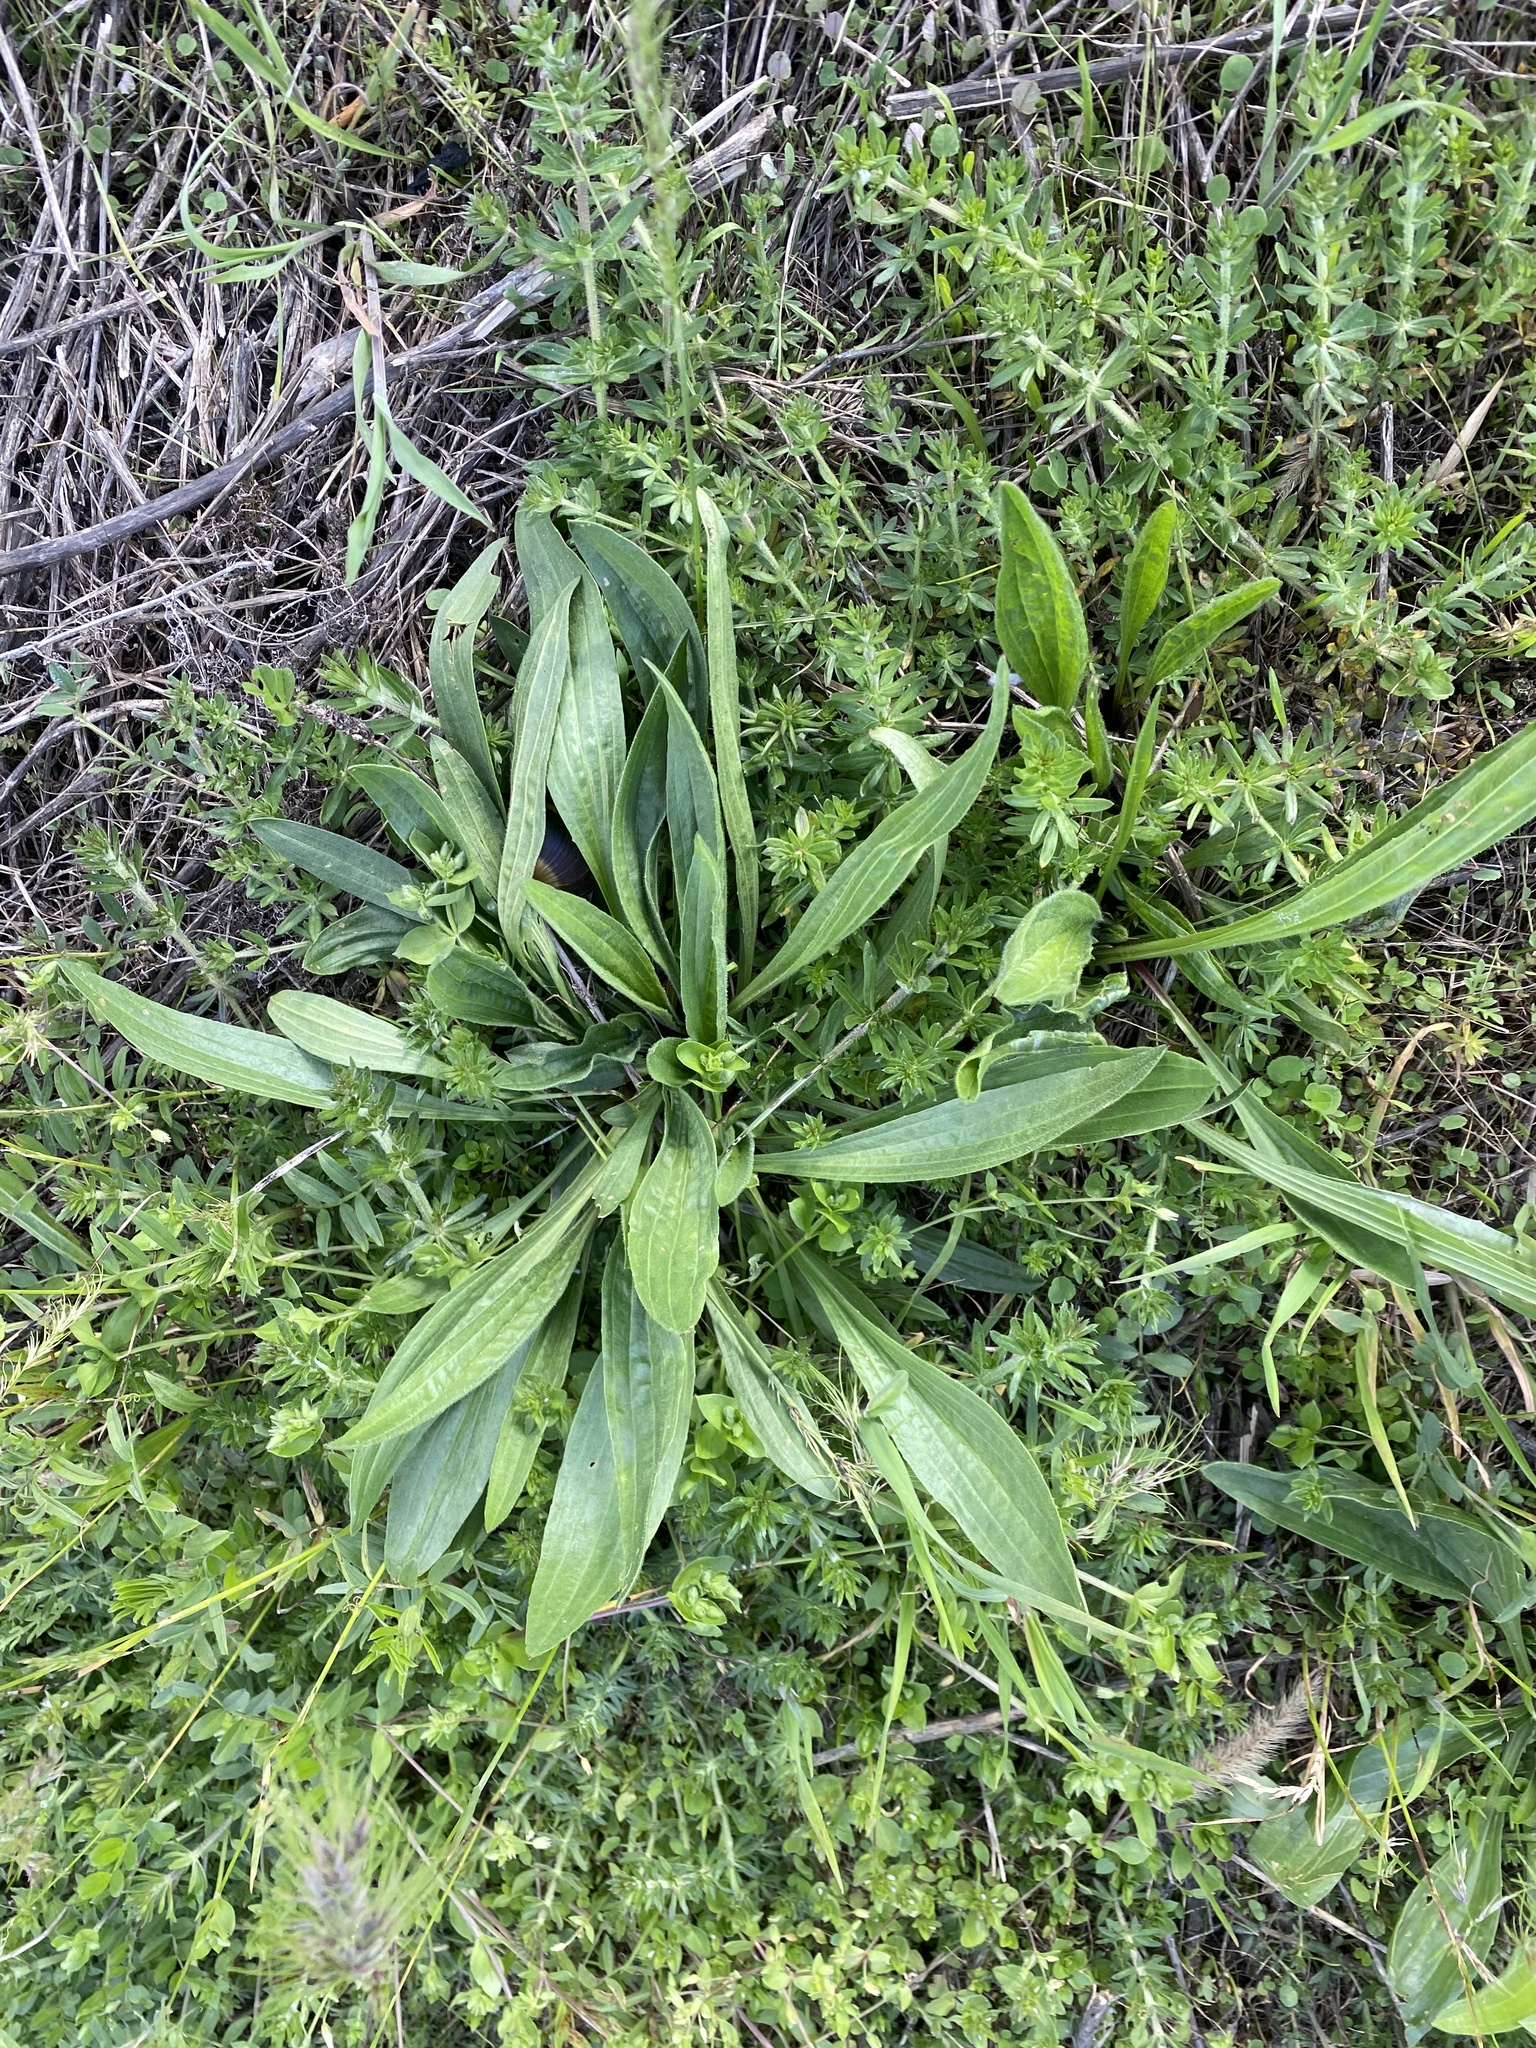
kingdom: Plantae
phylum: Tracheophyta
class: Magnoliopsida
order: Lamiales
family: Plantaginaceae
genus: Plantago
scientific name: Plantago lanceolata
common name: Ribwort plantain
